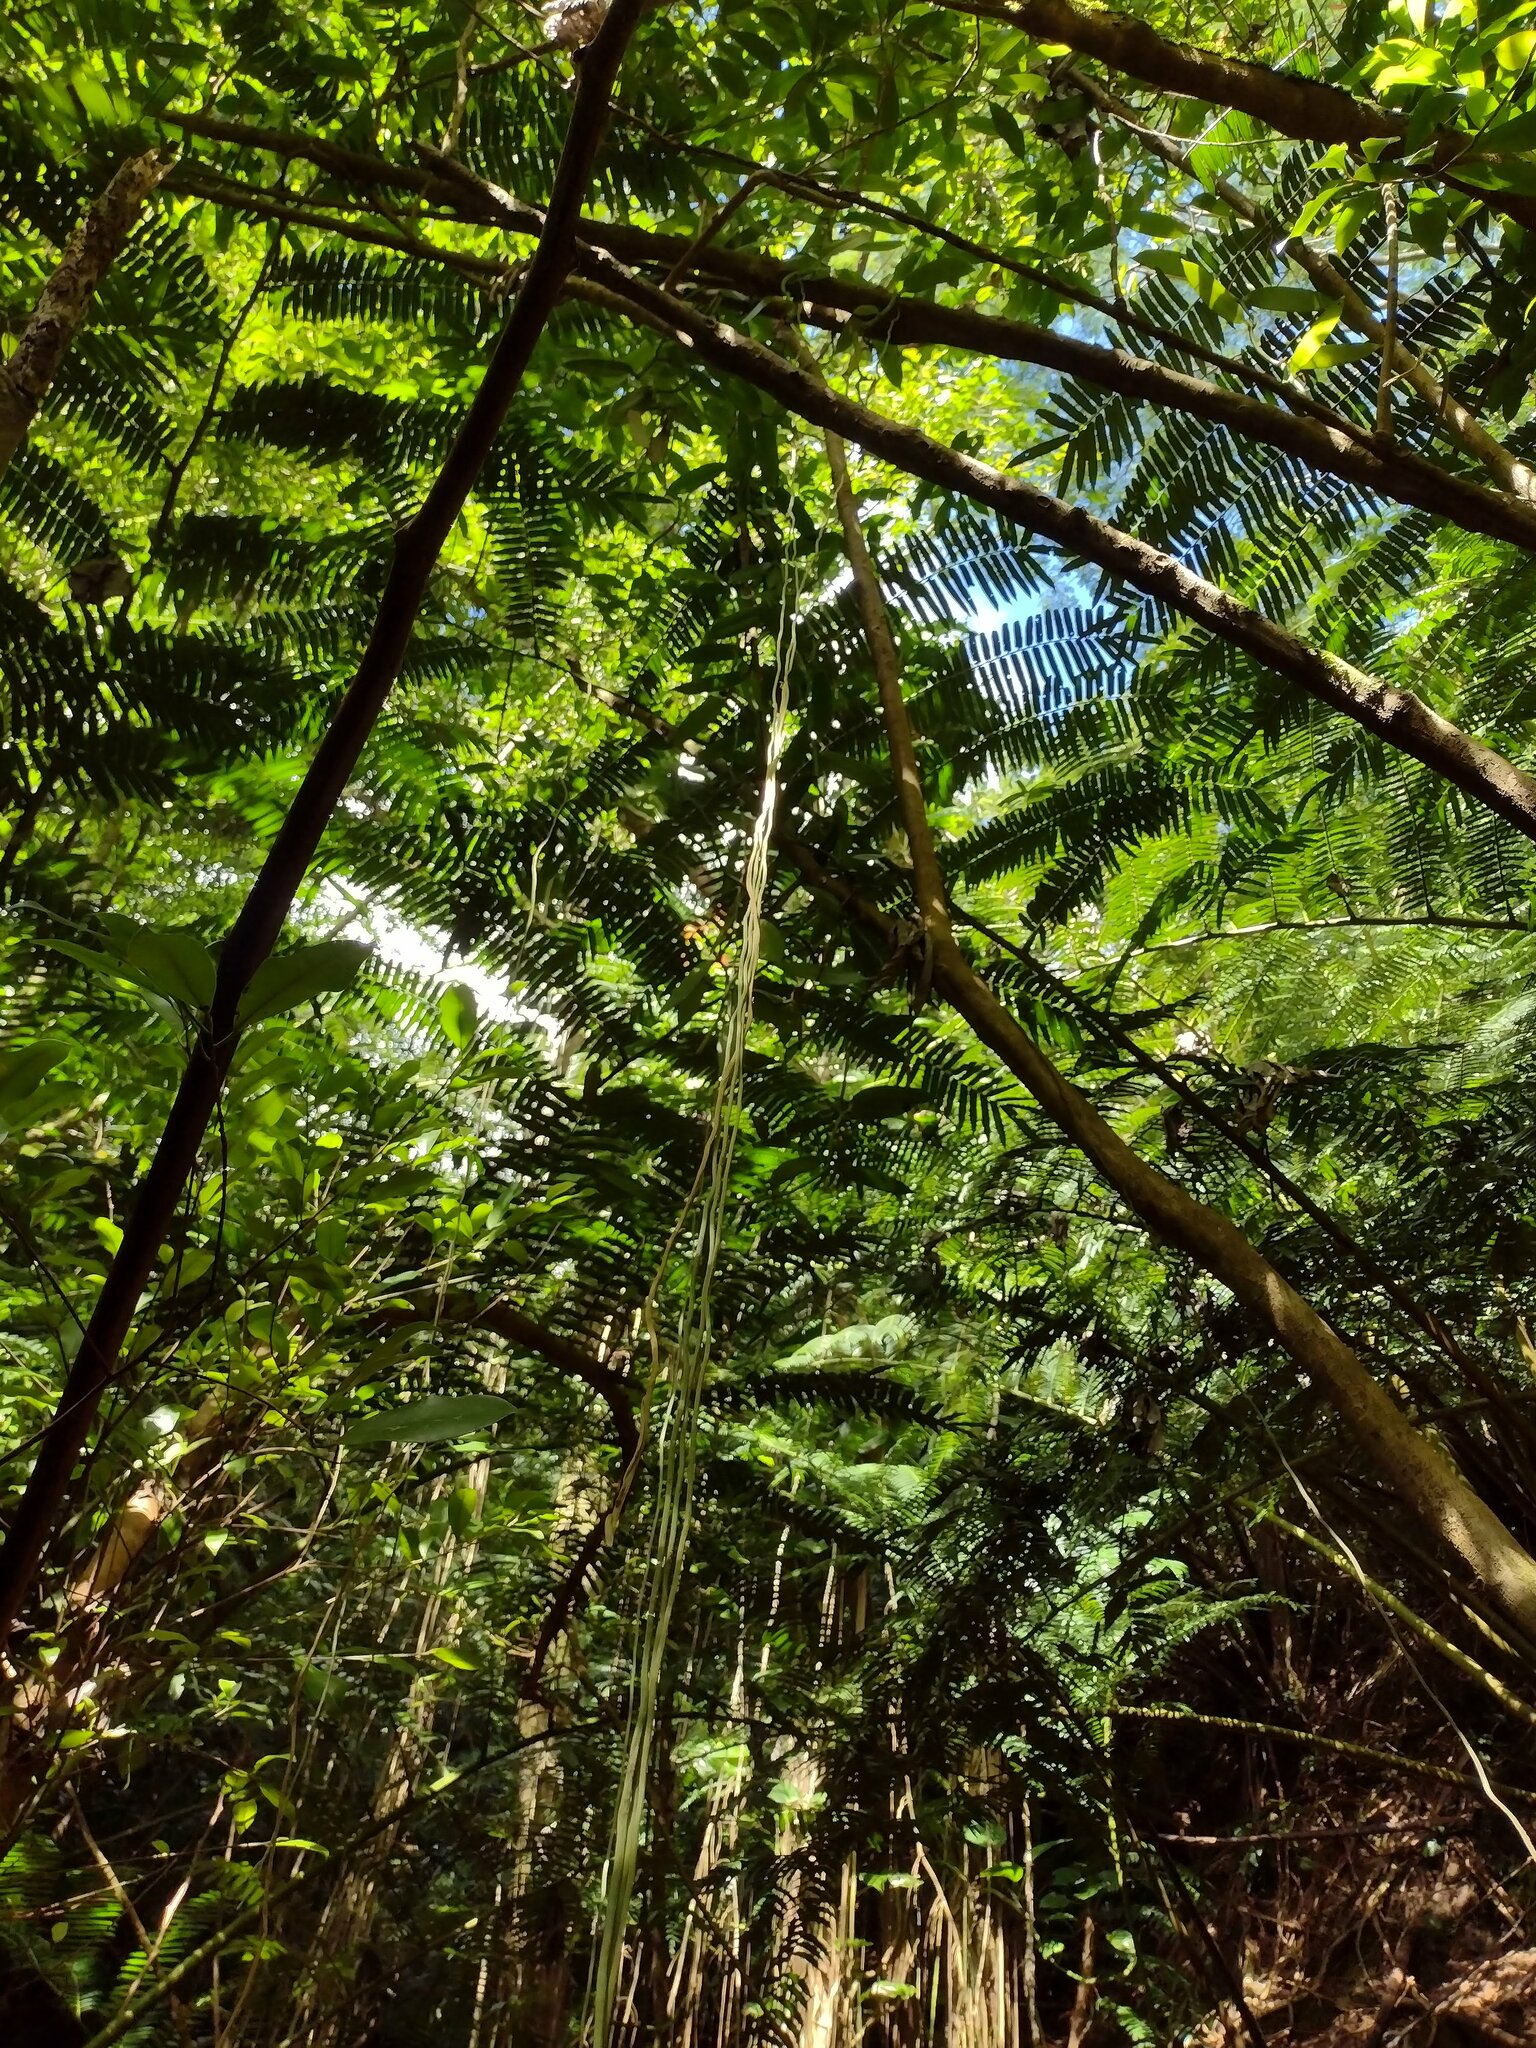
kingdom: Plantae
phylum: Tracheophyta
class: Liliopsida
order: Asparagales
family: Orchidaceae
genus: Vanilla
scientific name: Vanilla planifolia
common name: Vanilla
